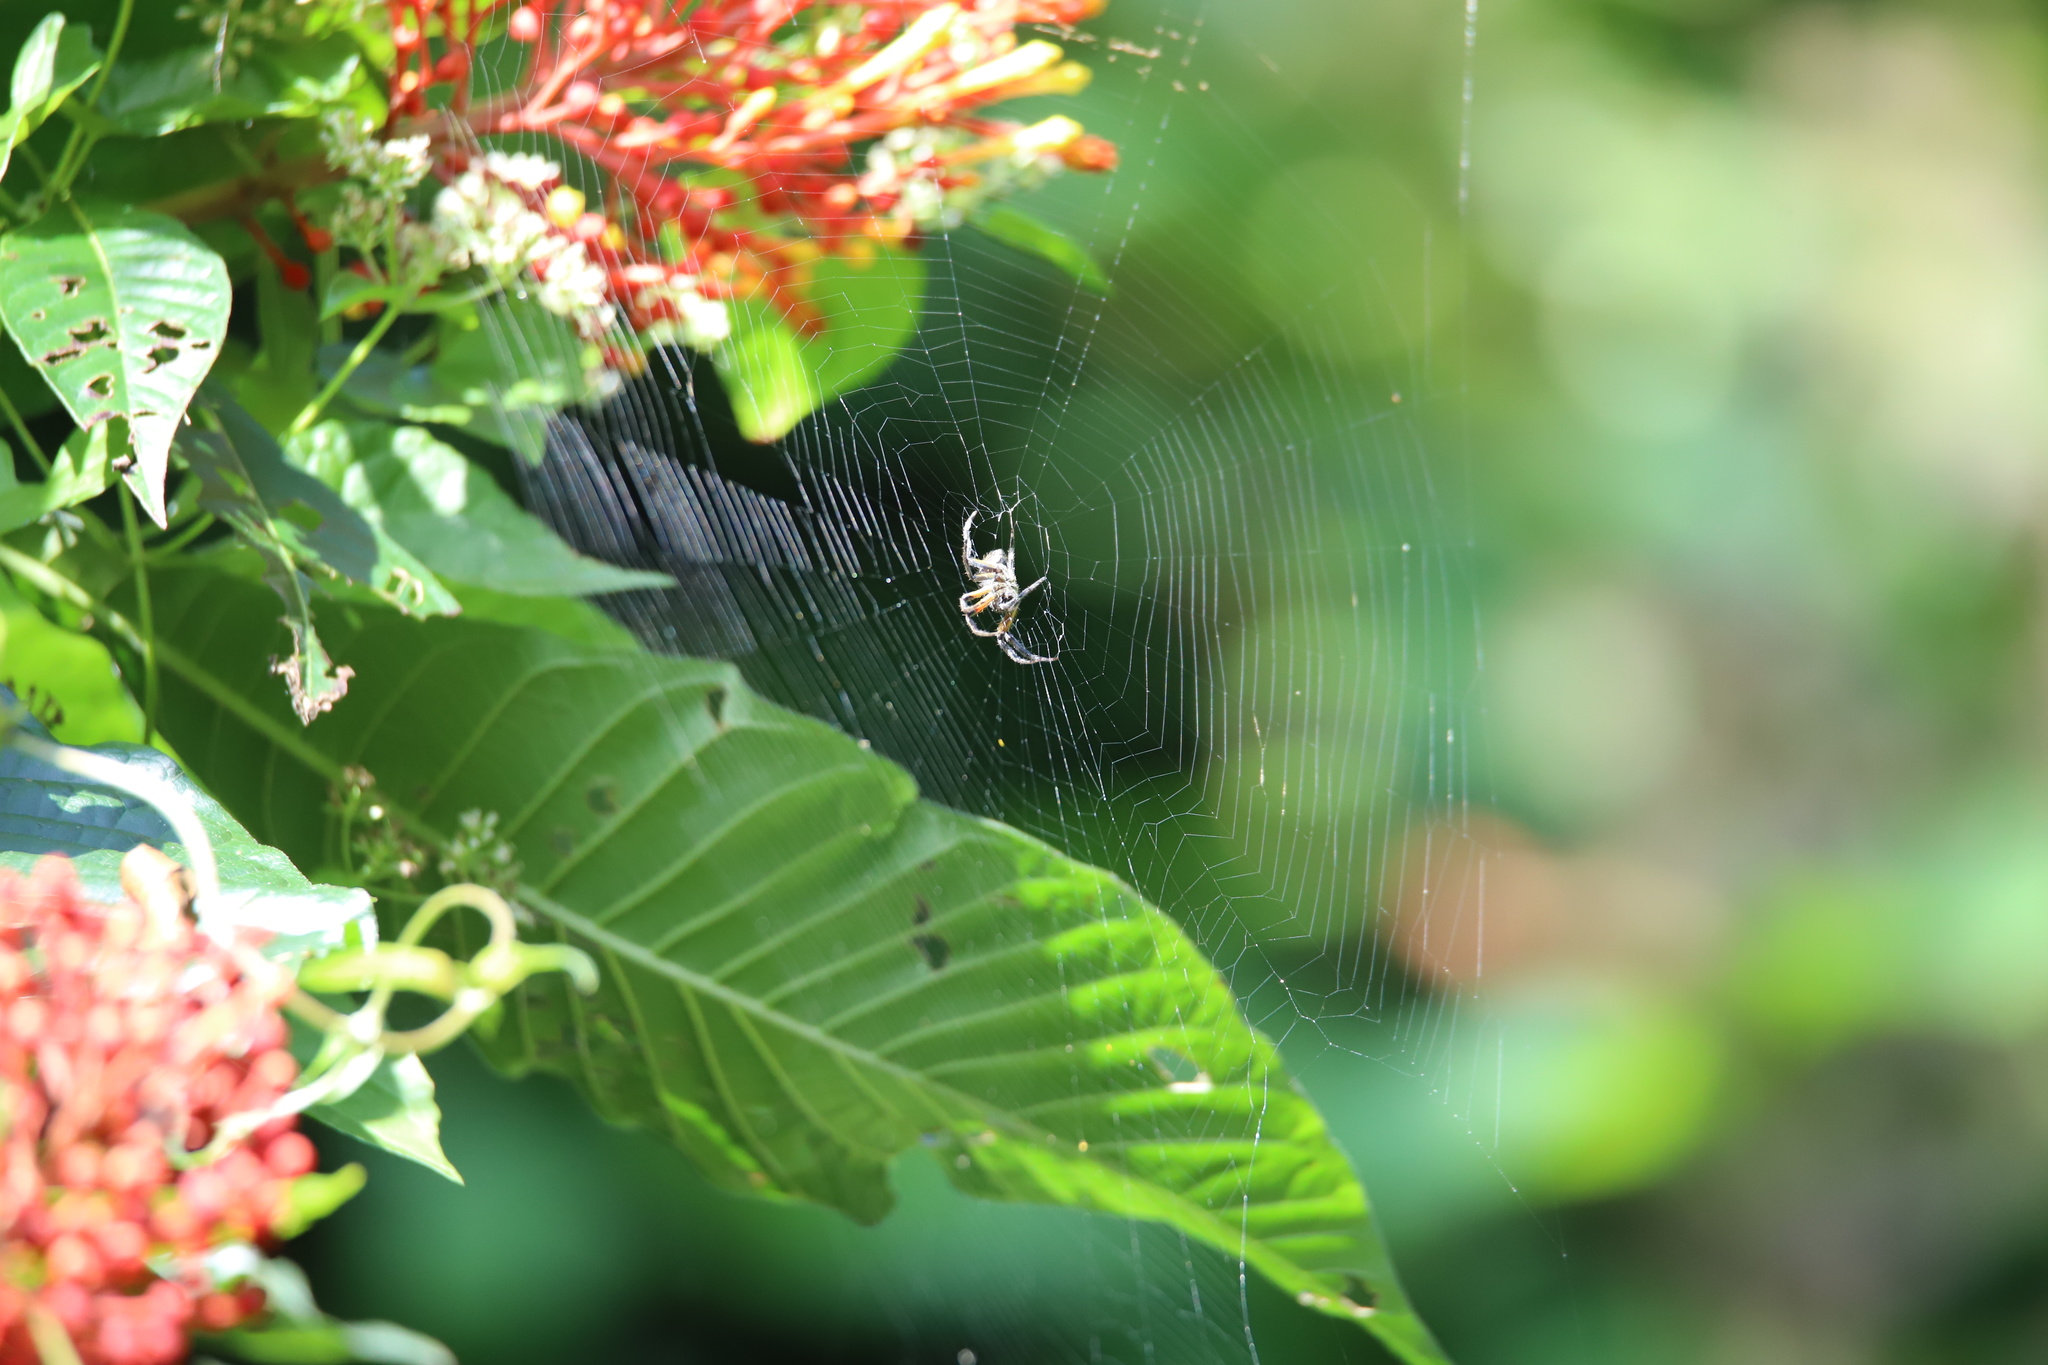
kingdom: Animalia
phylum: Arthropoda
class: Arachnida
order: Araneae
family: Araneidae
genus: Eriophora
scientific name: Eriophora fuliginea
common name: Orb weavers
